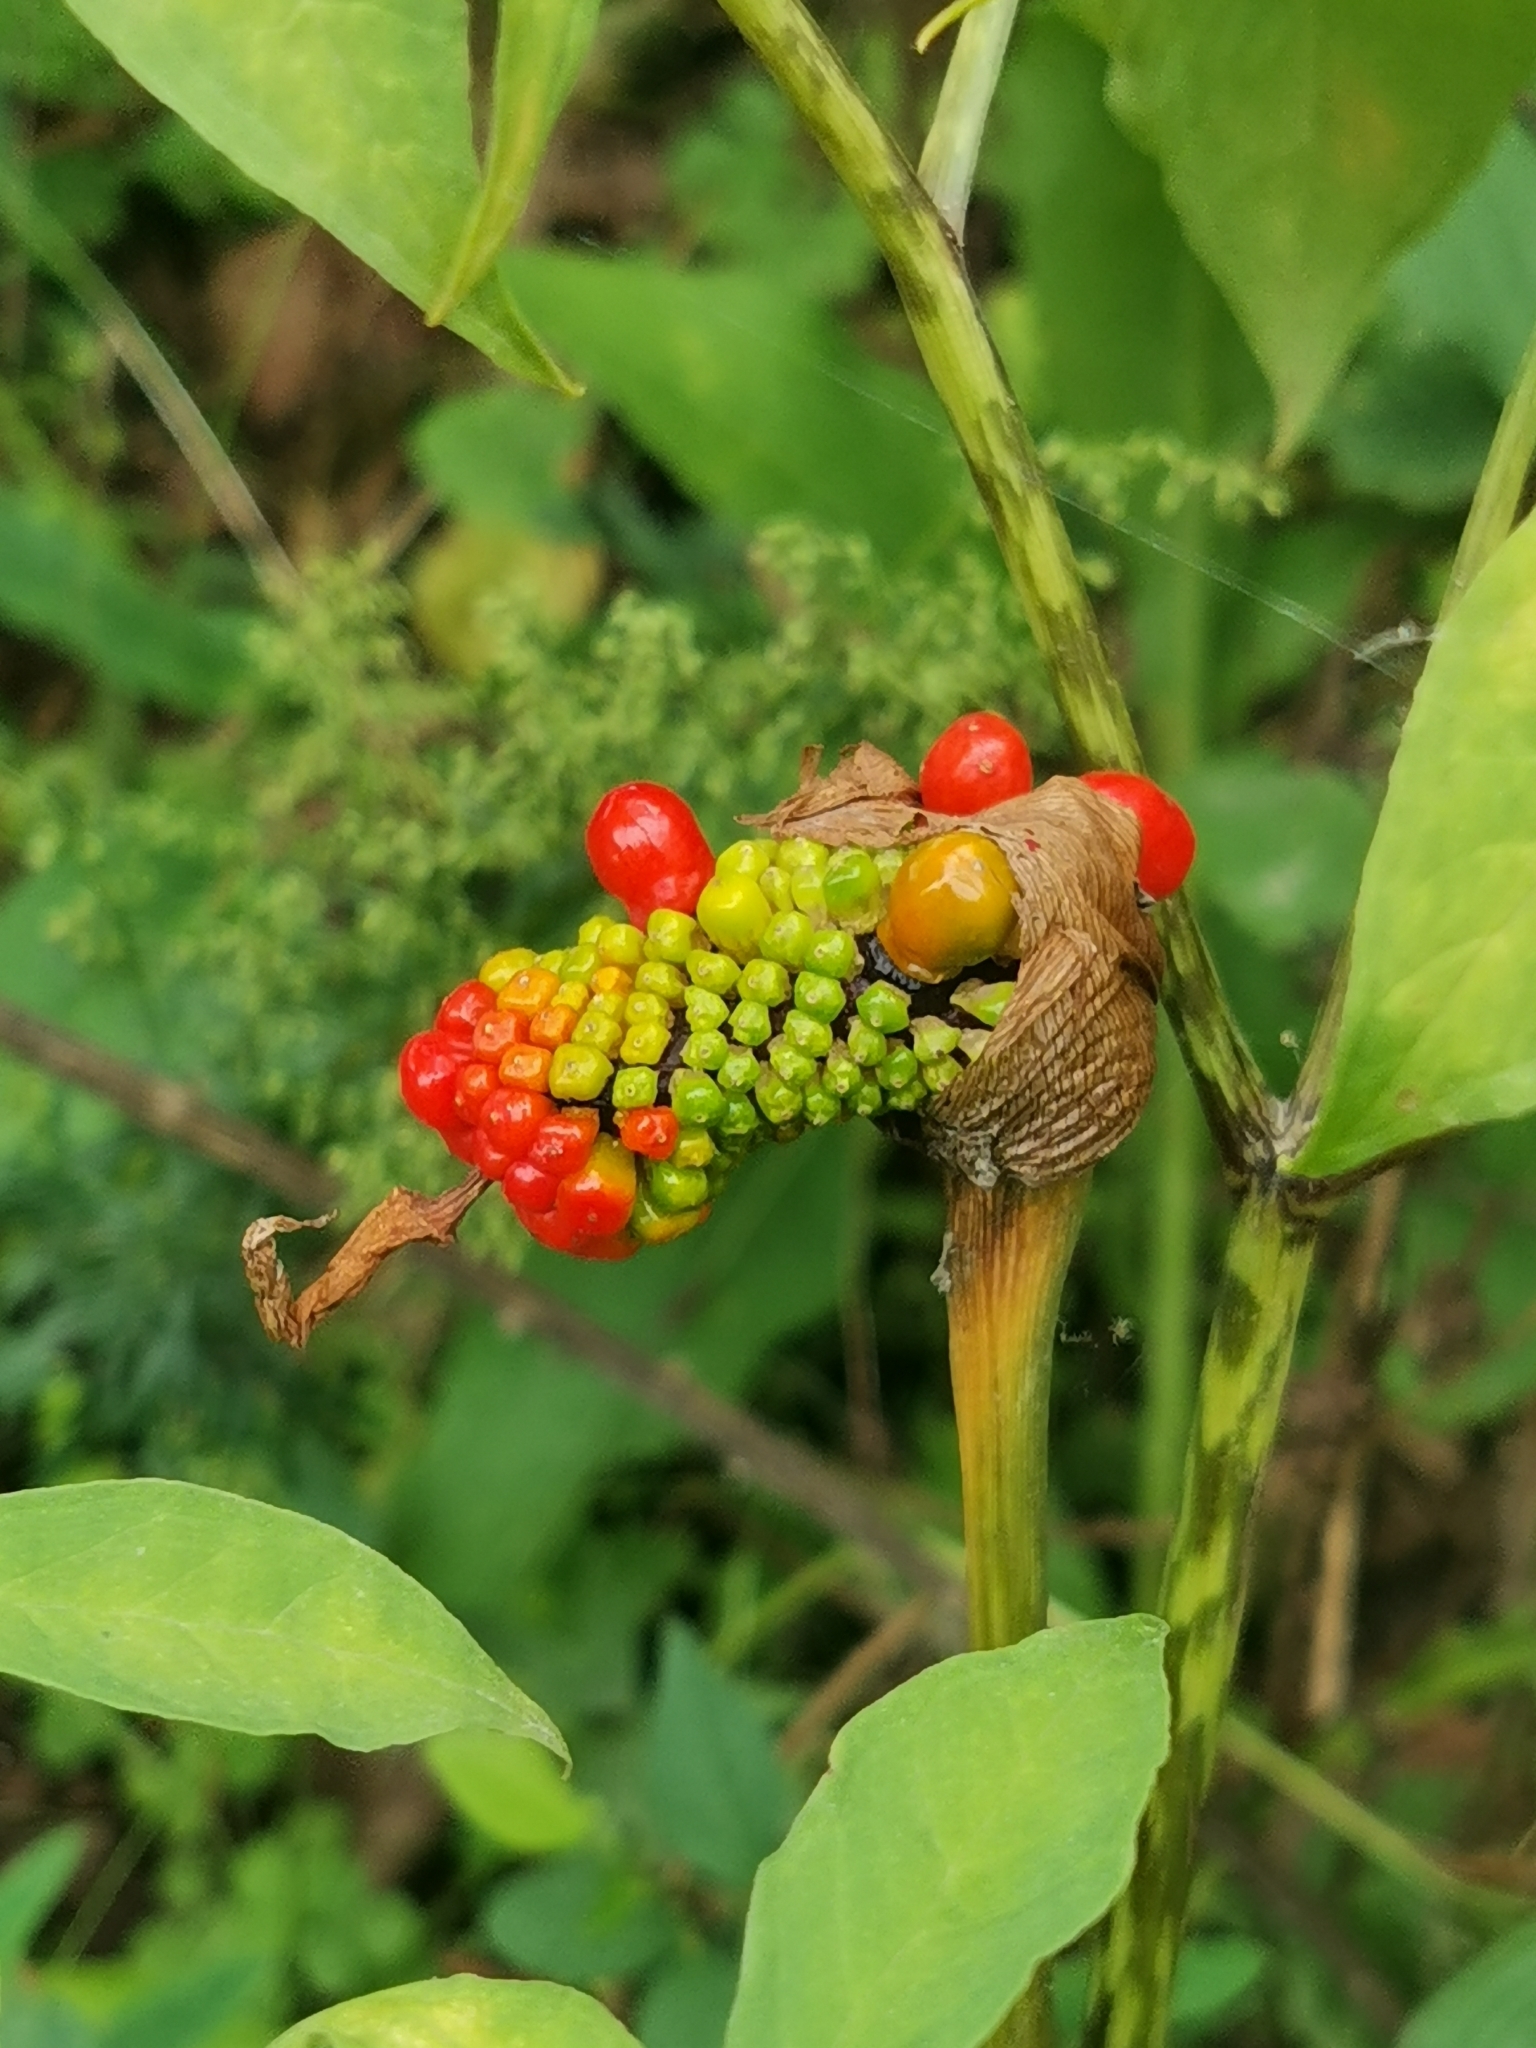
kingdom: Plantae
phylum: Tracheophyta
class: Liliopsida
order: Alismatales
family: Araceae
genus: Arisaema
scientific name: Arisaema serratum
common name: Japanese arisaema
